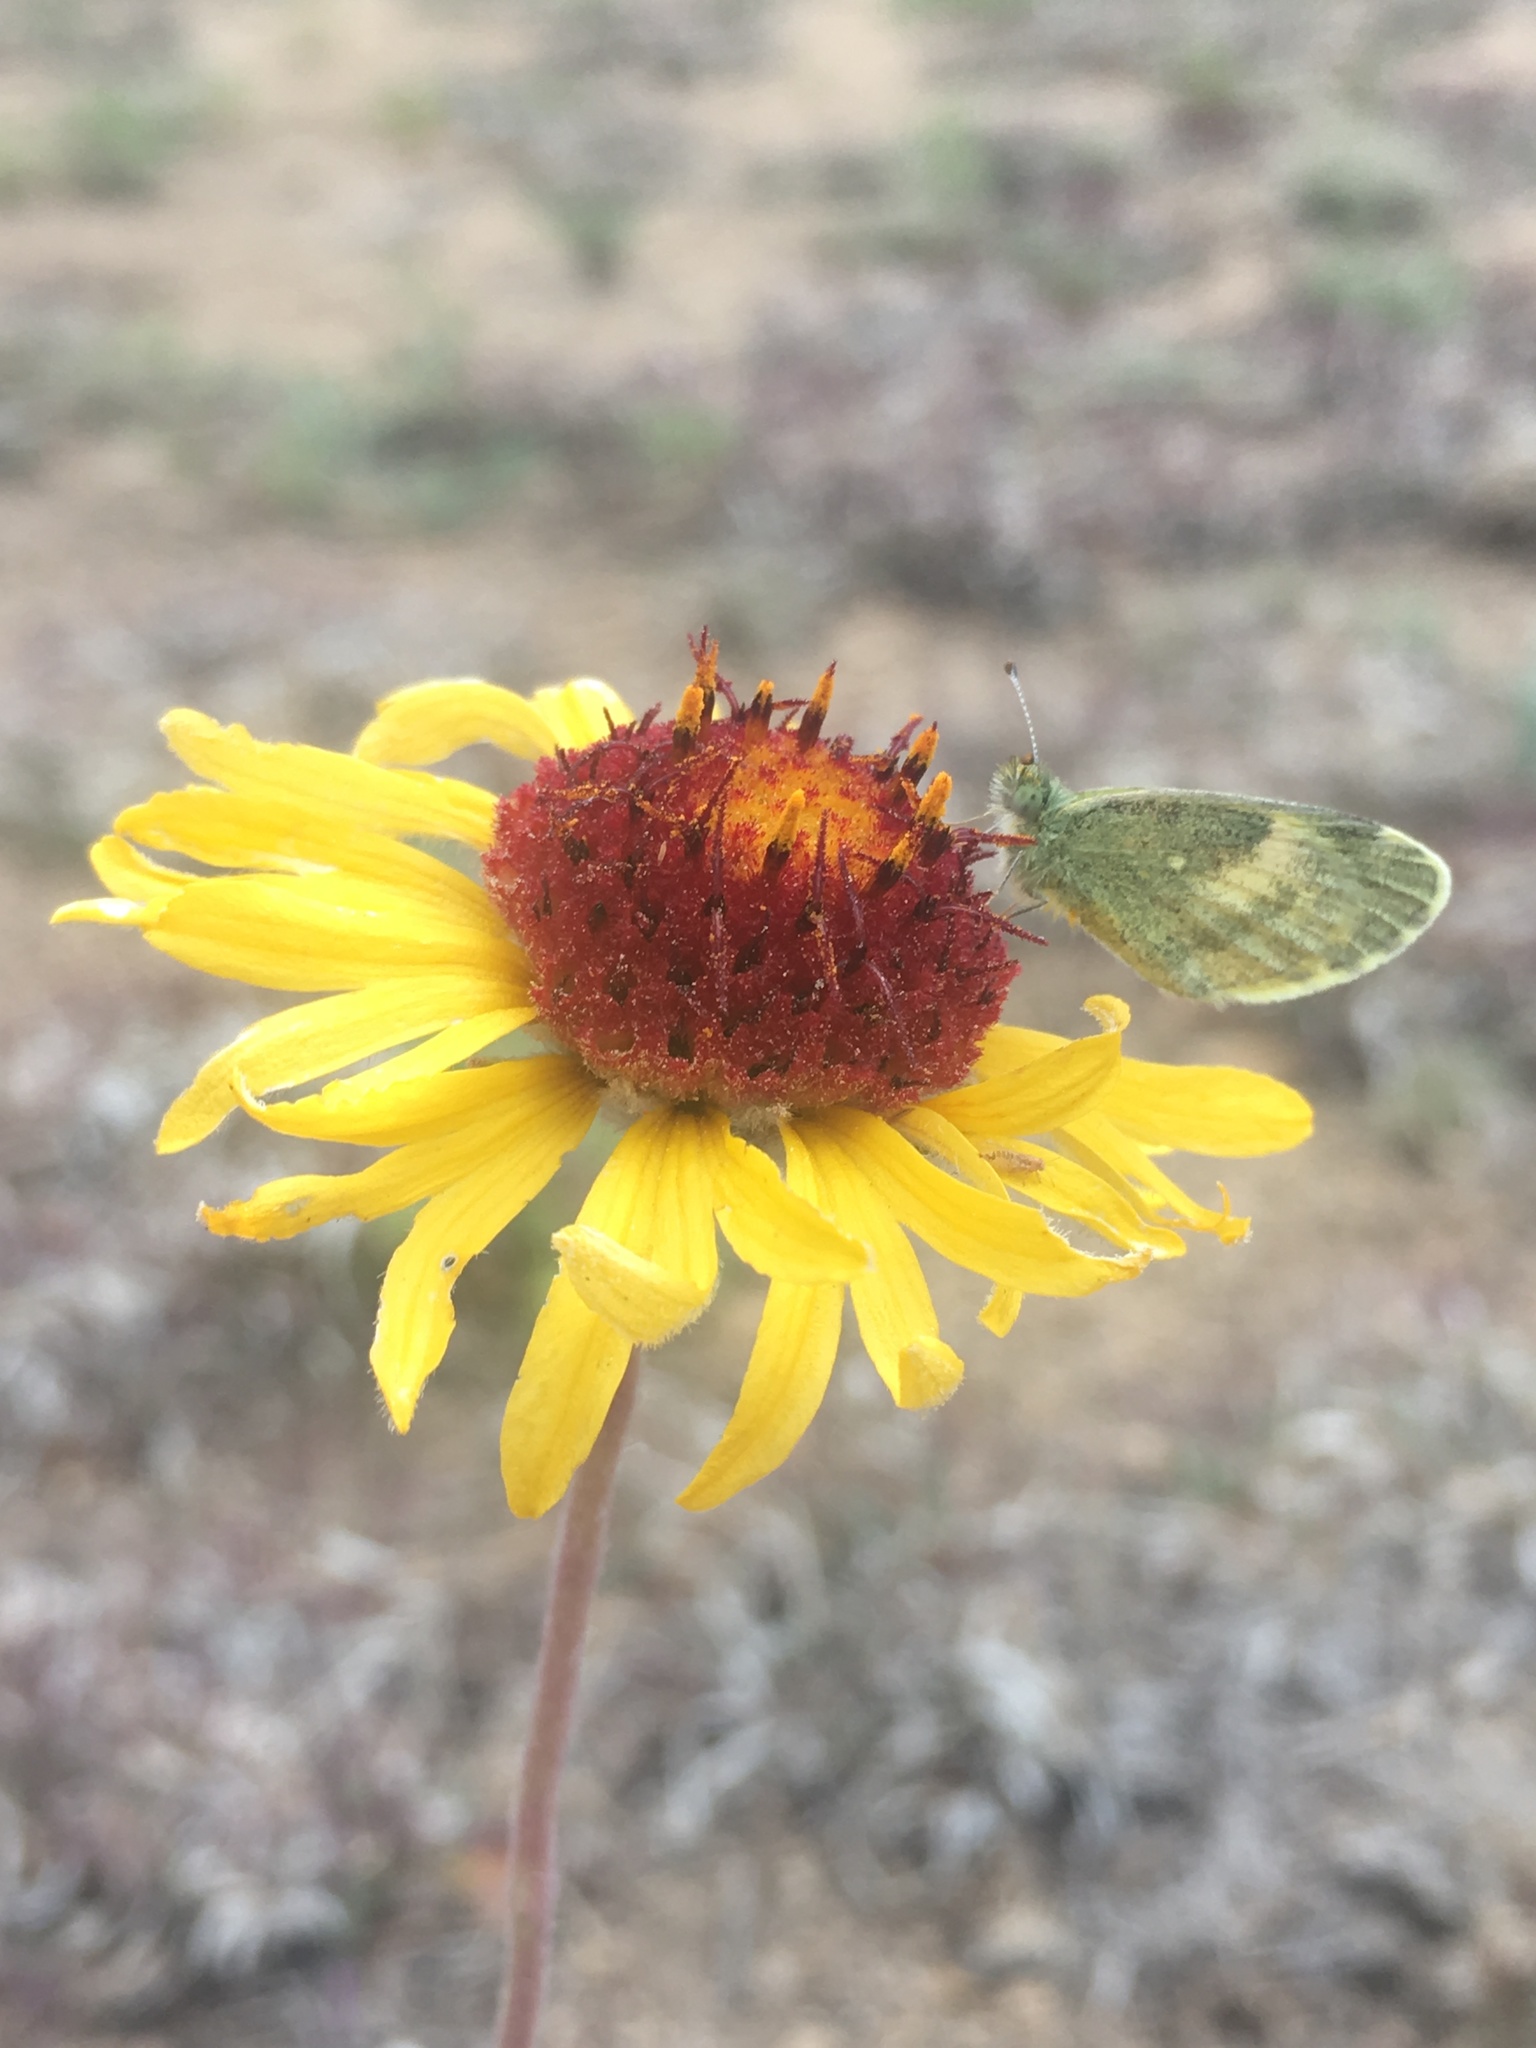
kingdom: Animalia
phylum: Arthropoda
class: Insecta
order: Lepidoptera
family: Pieridae
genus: Nathalis
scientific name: Nathalis iole
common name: Dainty sulphur
